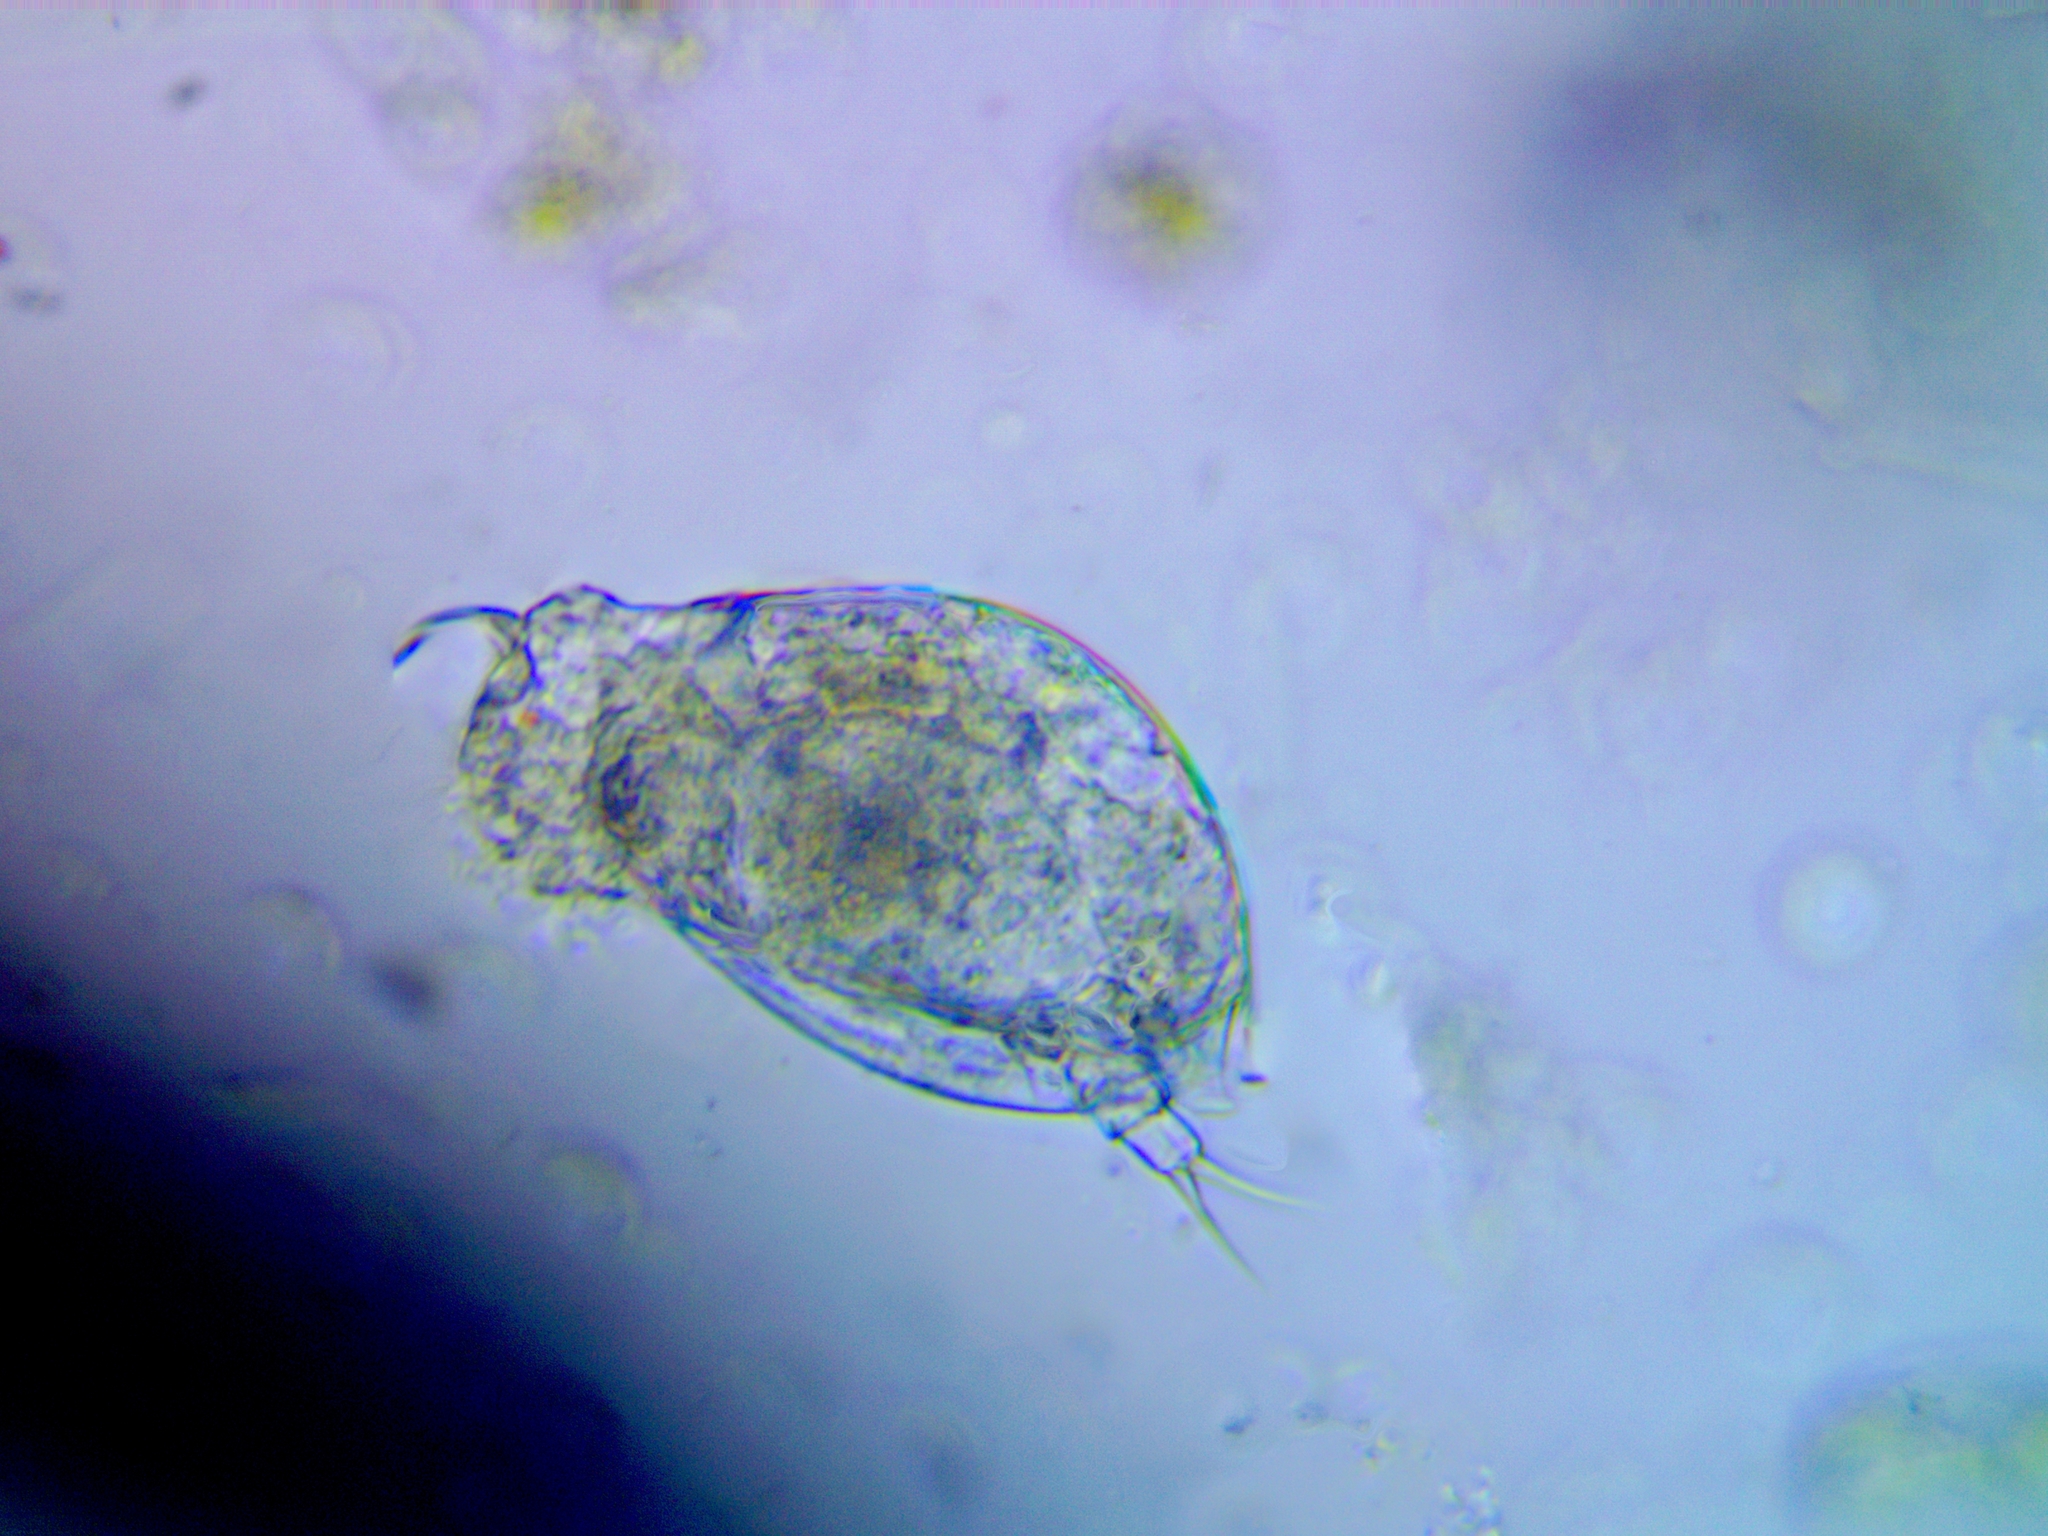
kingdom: Animalia
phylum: Rotifera
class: Eurotatoria
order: Ploima
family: Lepadellidae
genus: Colurella
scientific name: Colurella uncinata
